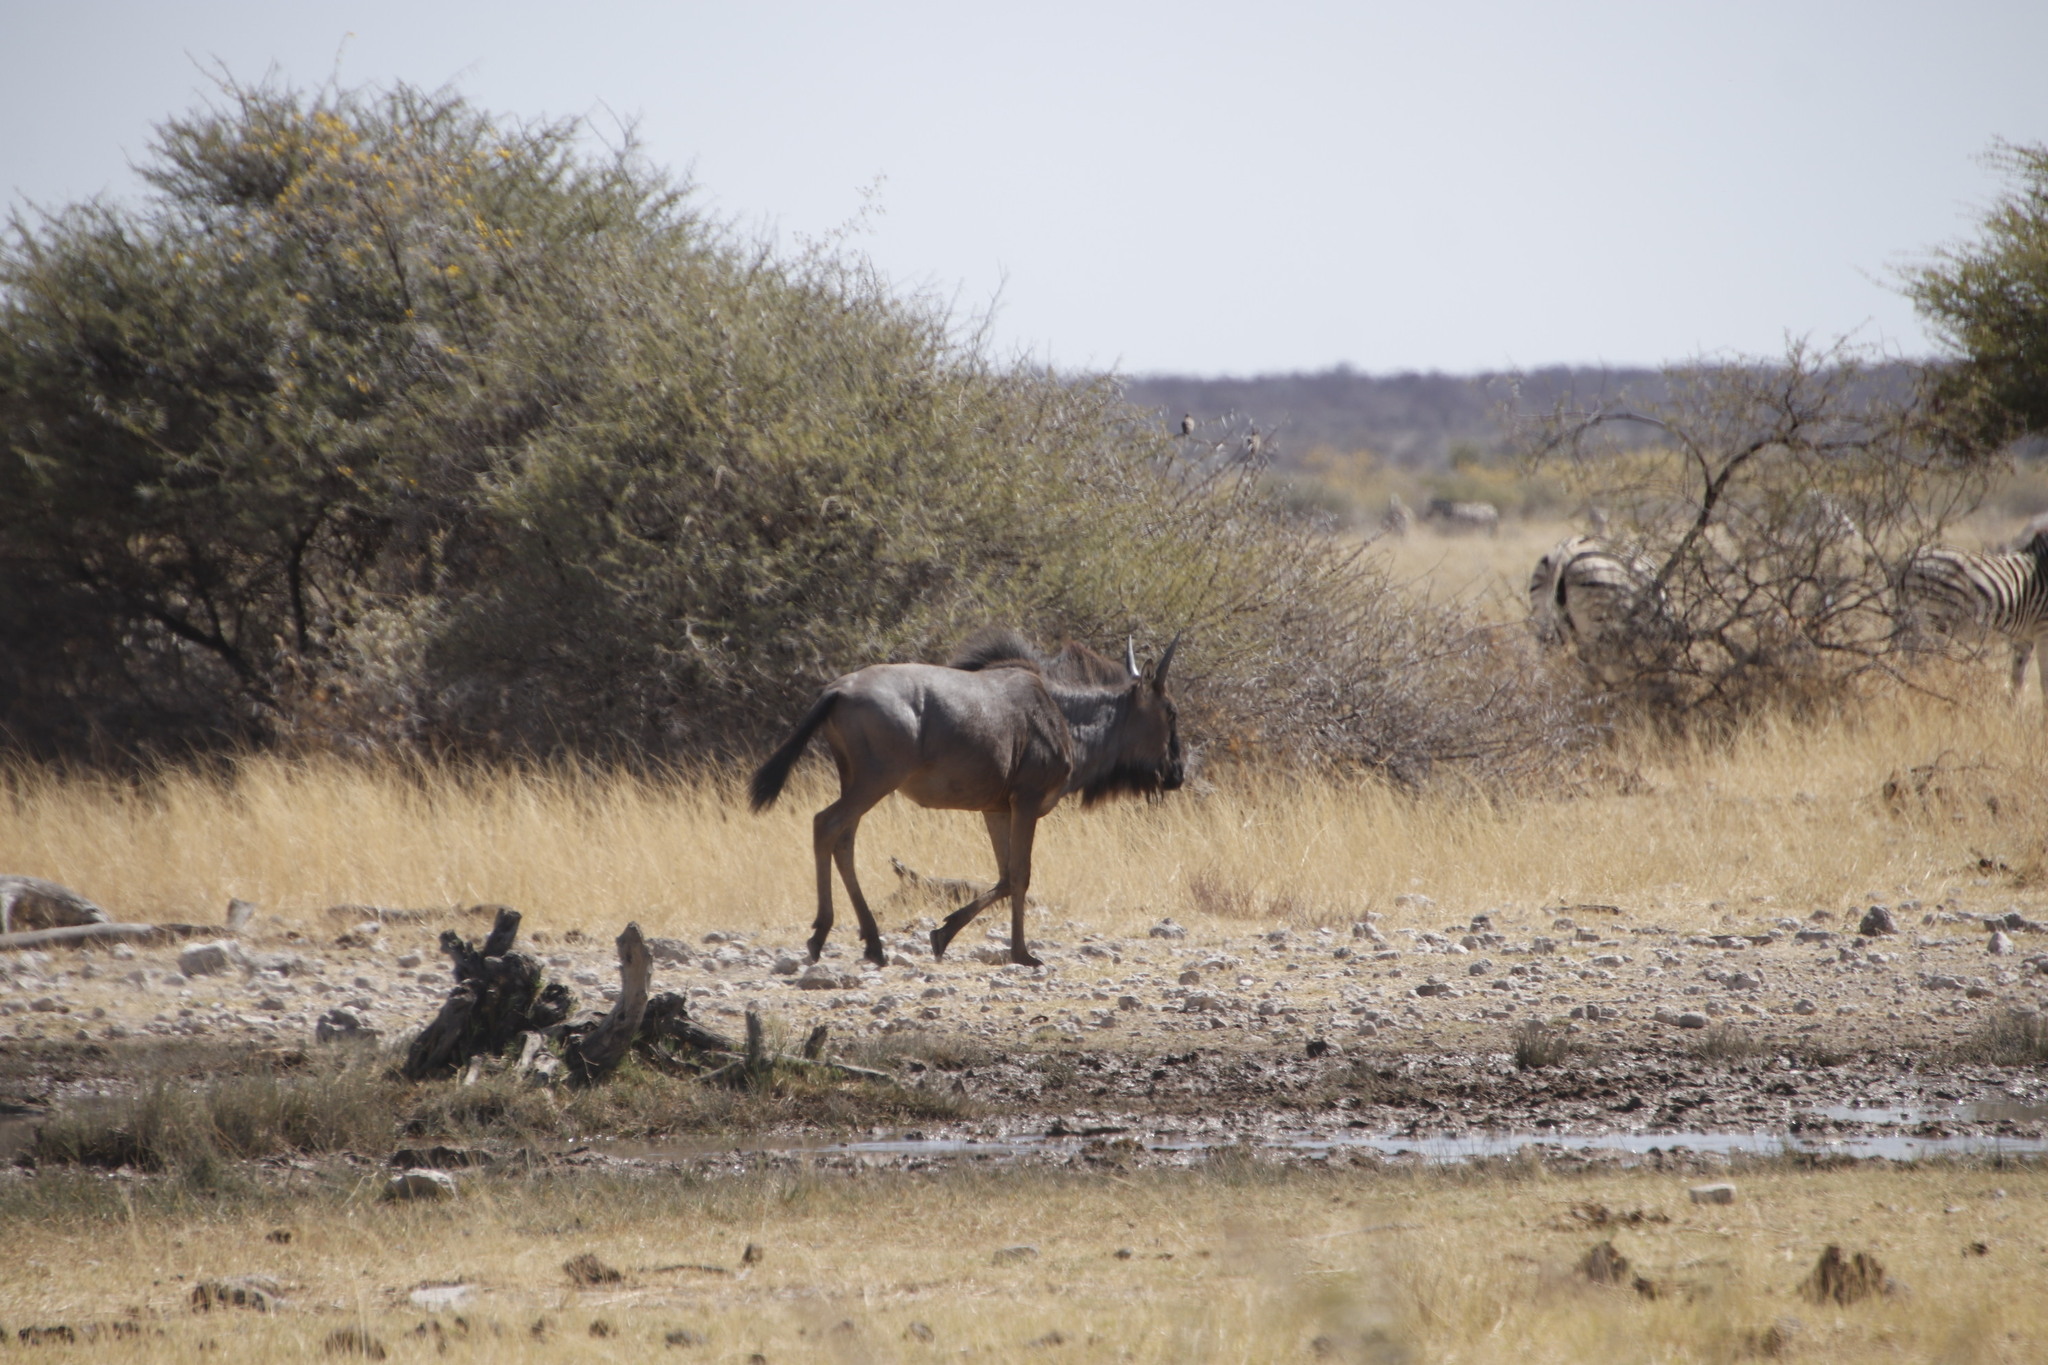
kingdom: Animalia
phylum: Chordata
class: Mammalia
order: Artiodactyla
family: Bovidae
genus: Connochaetes
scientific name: Connochaetes taurinus
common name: Blue wildebeest
